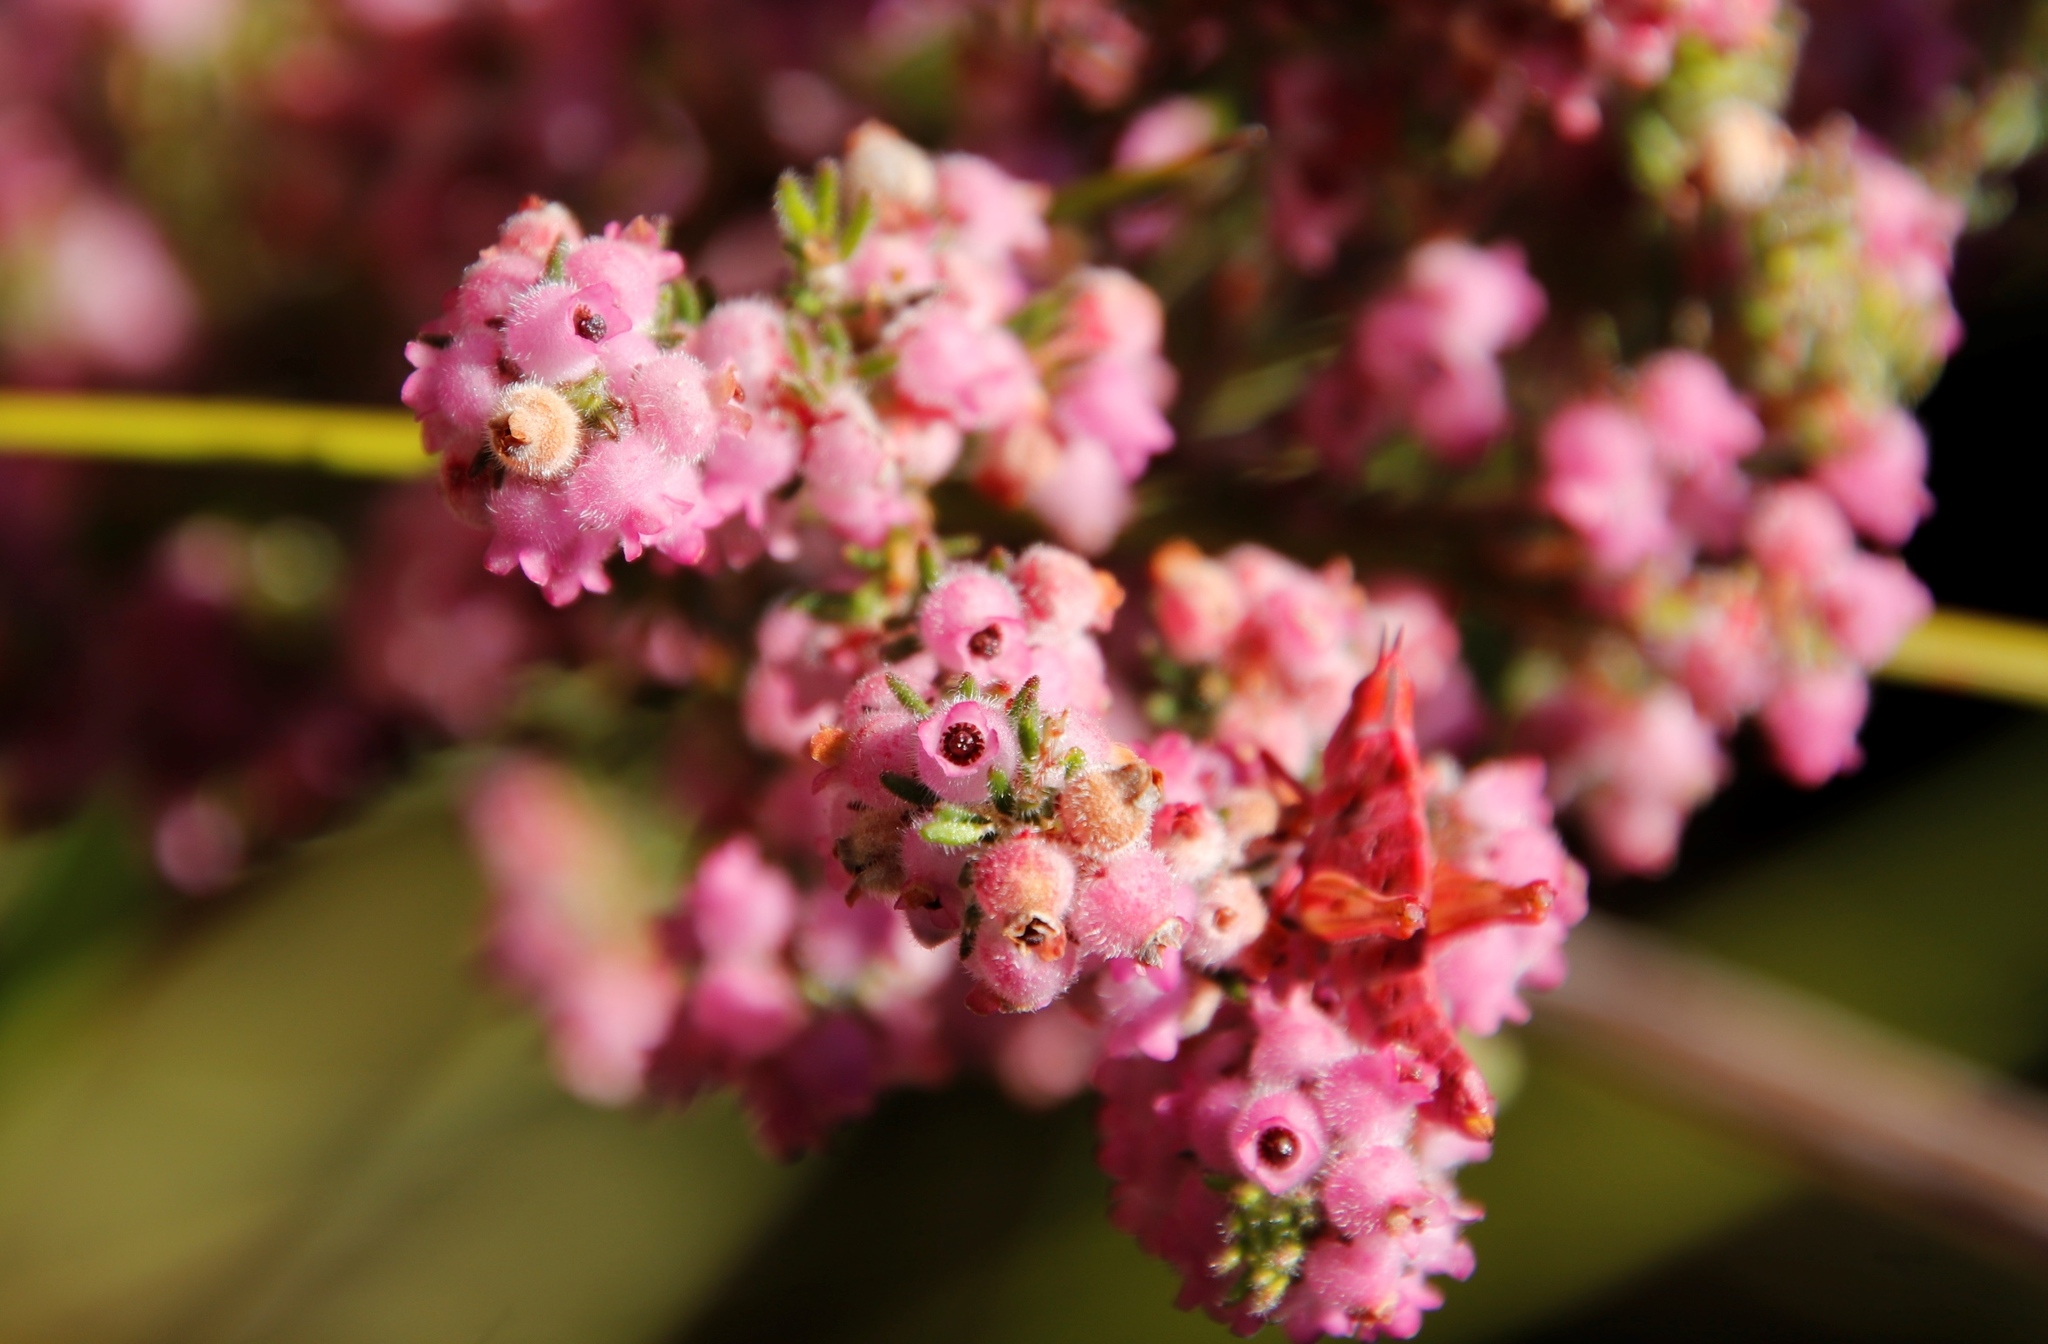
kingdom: Animalia
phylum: Arthropoda
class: Insecta
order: Orthoptera
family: Thericleidae
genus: Thericlesiella
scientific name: Thericlesiella meridionalis
